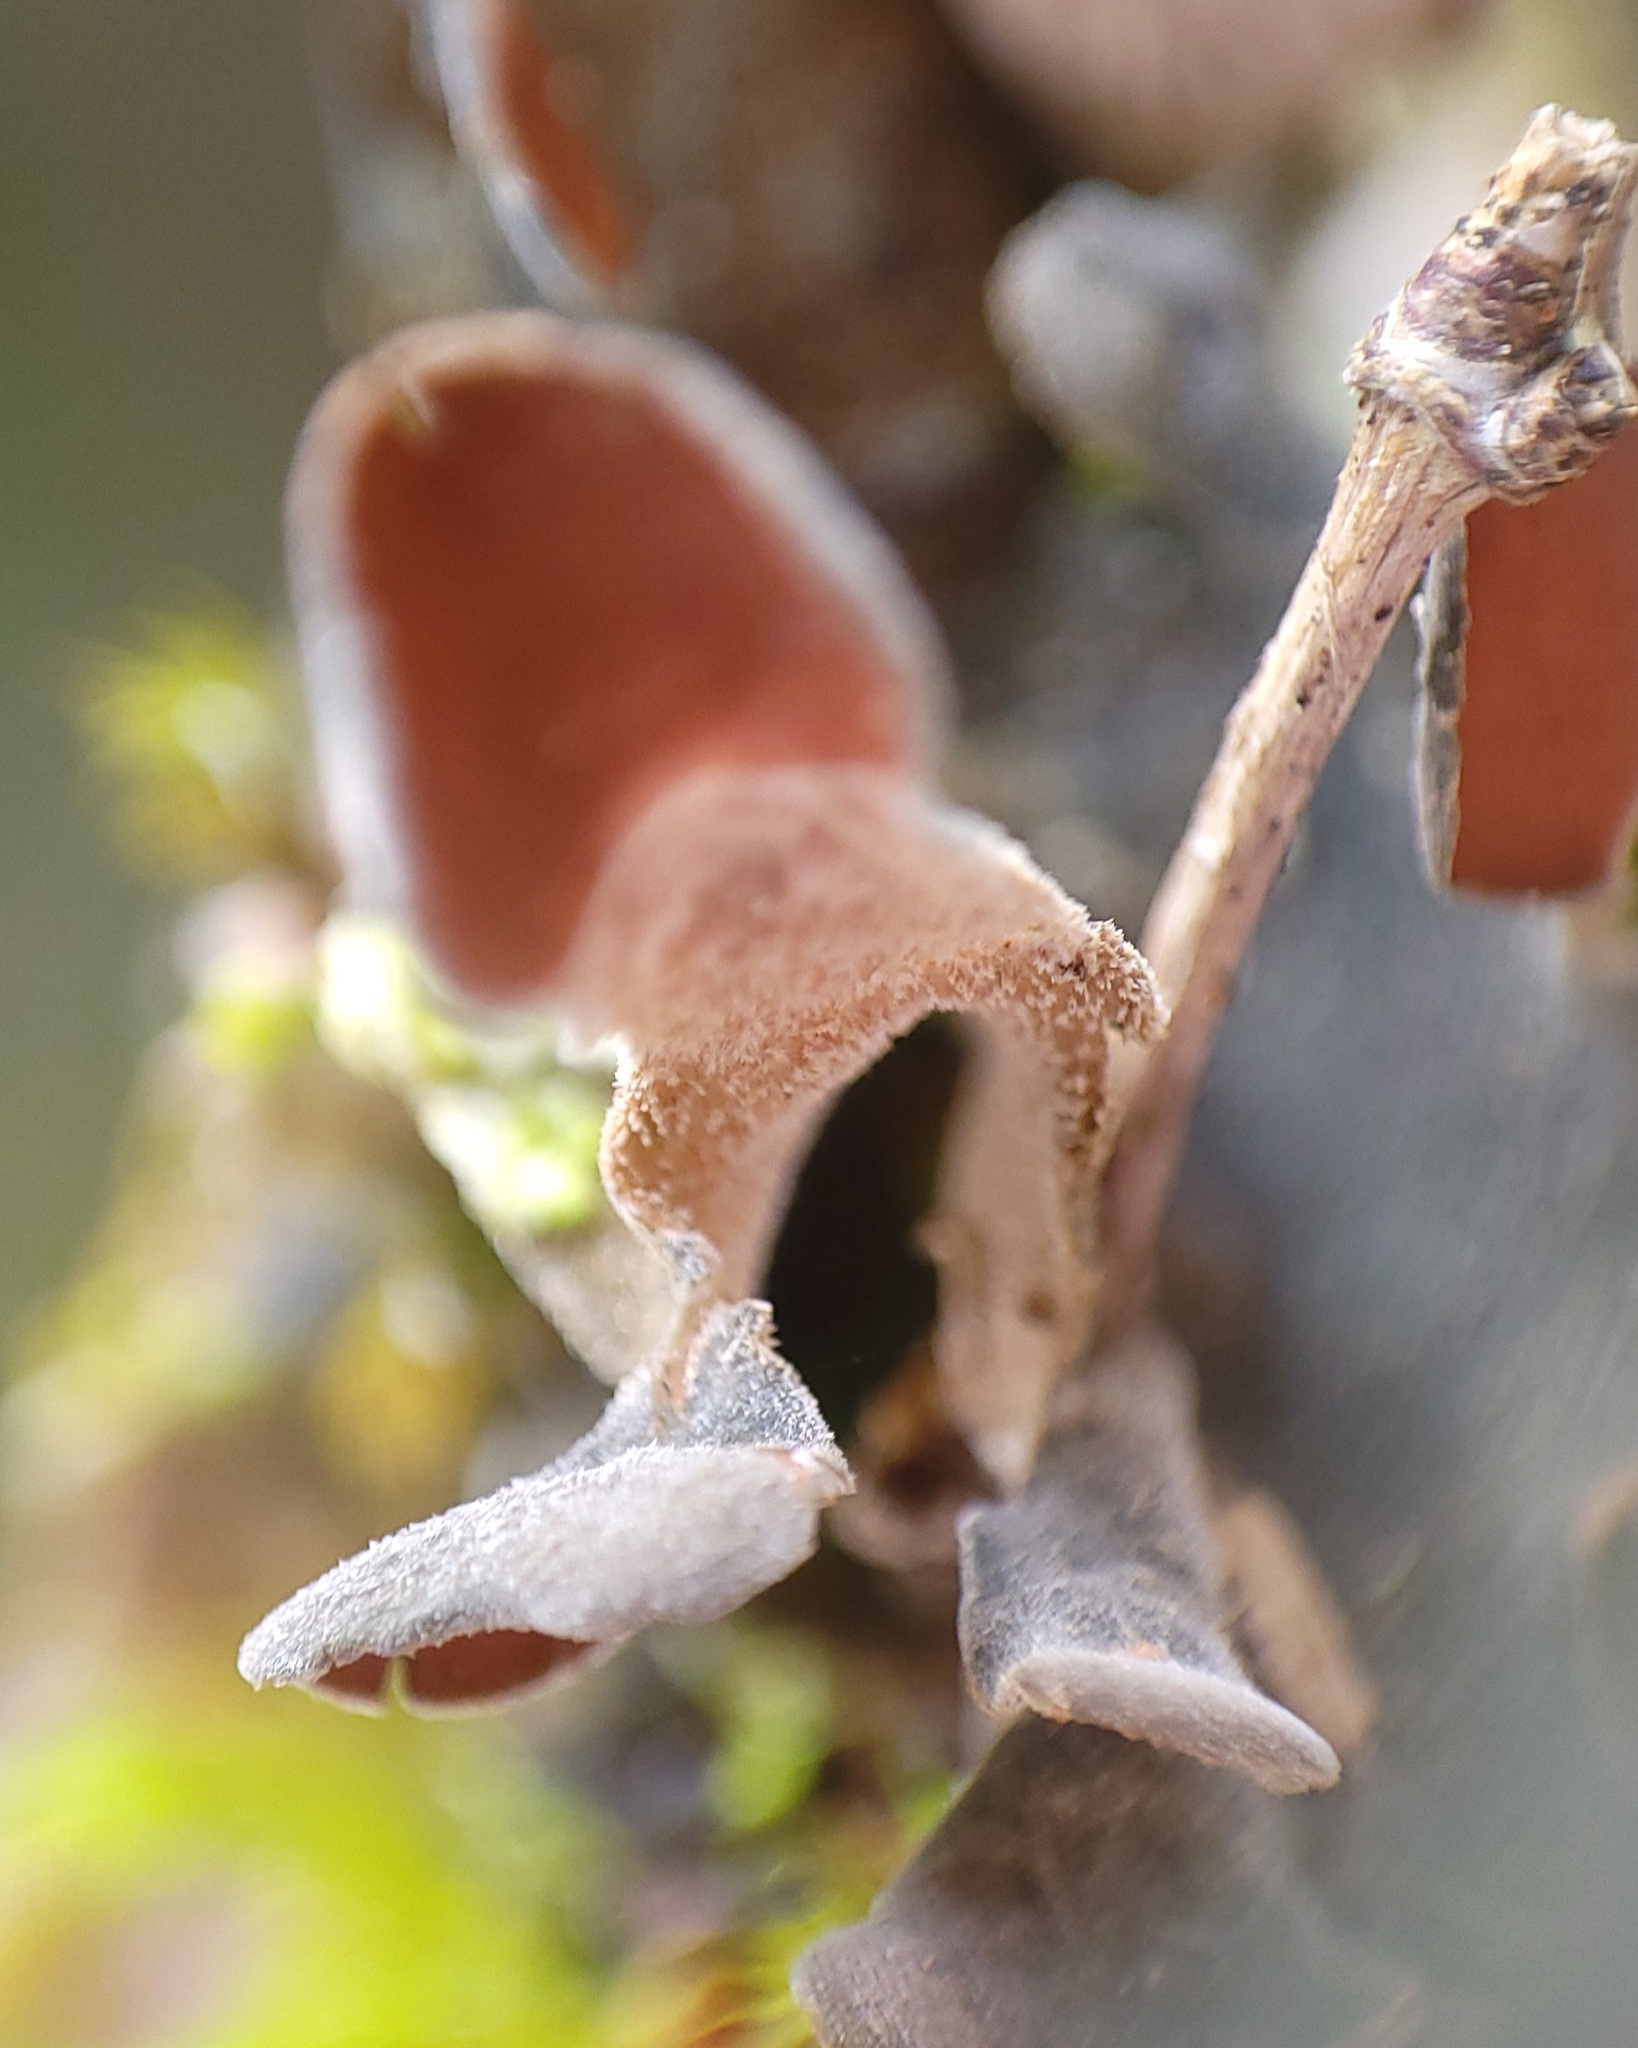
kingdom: Fungi
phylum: Ascomycota
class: Lecanoromycetes
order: Peltigerales
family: Nephromataceae
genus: Nephroma
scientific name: Nephroma resupinatum
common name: Pimpled kidney lichen
